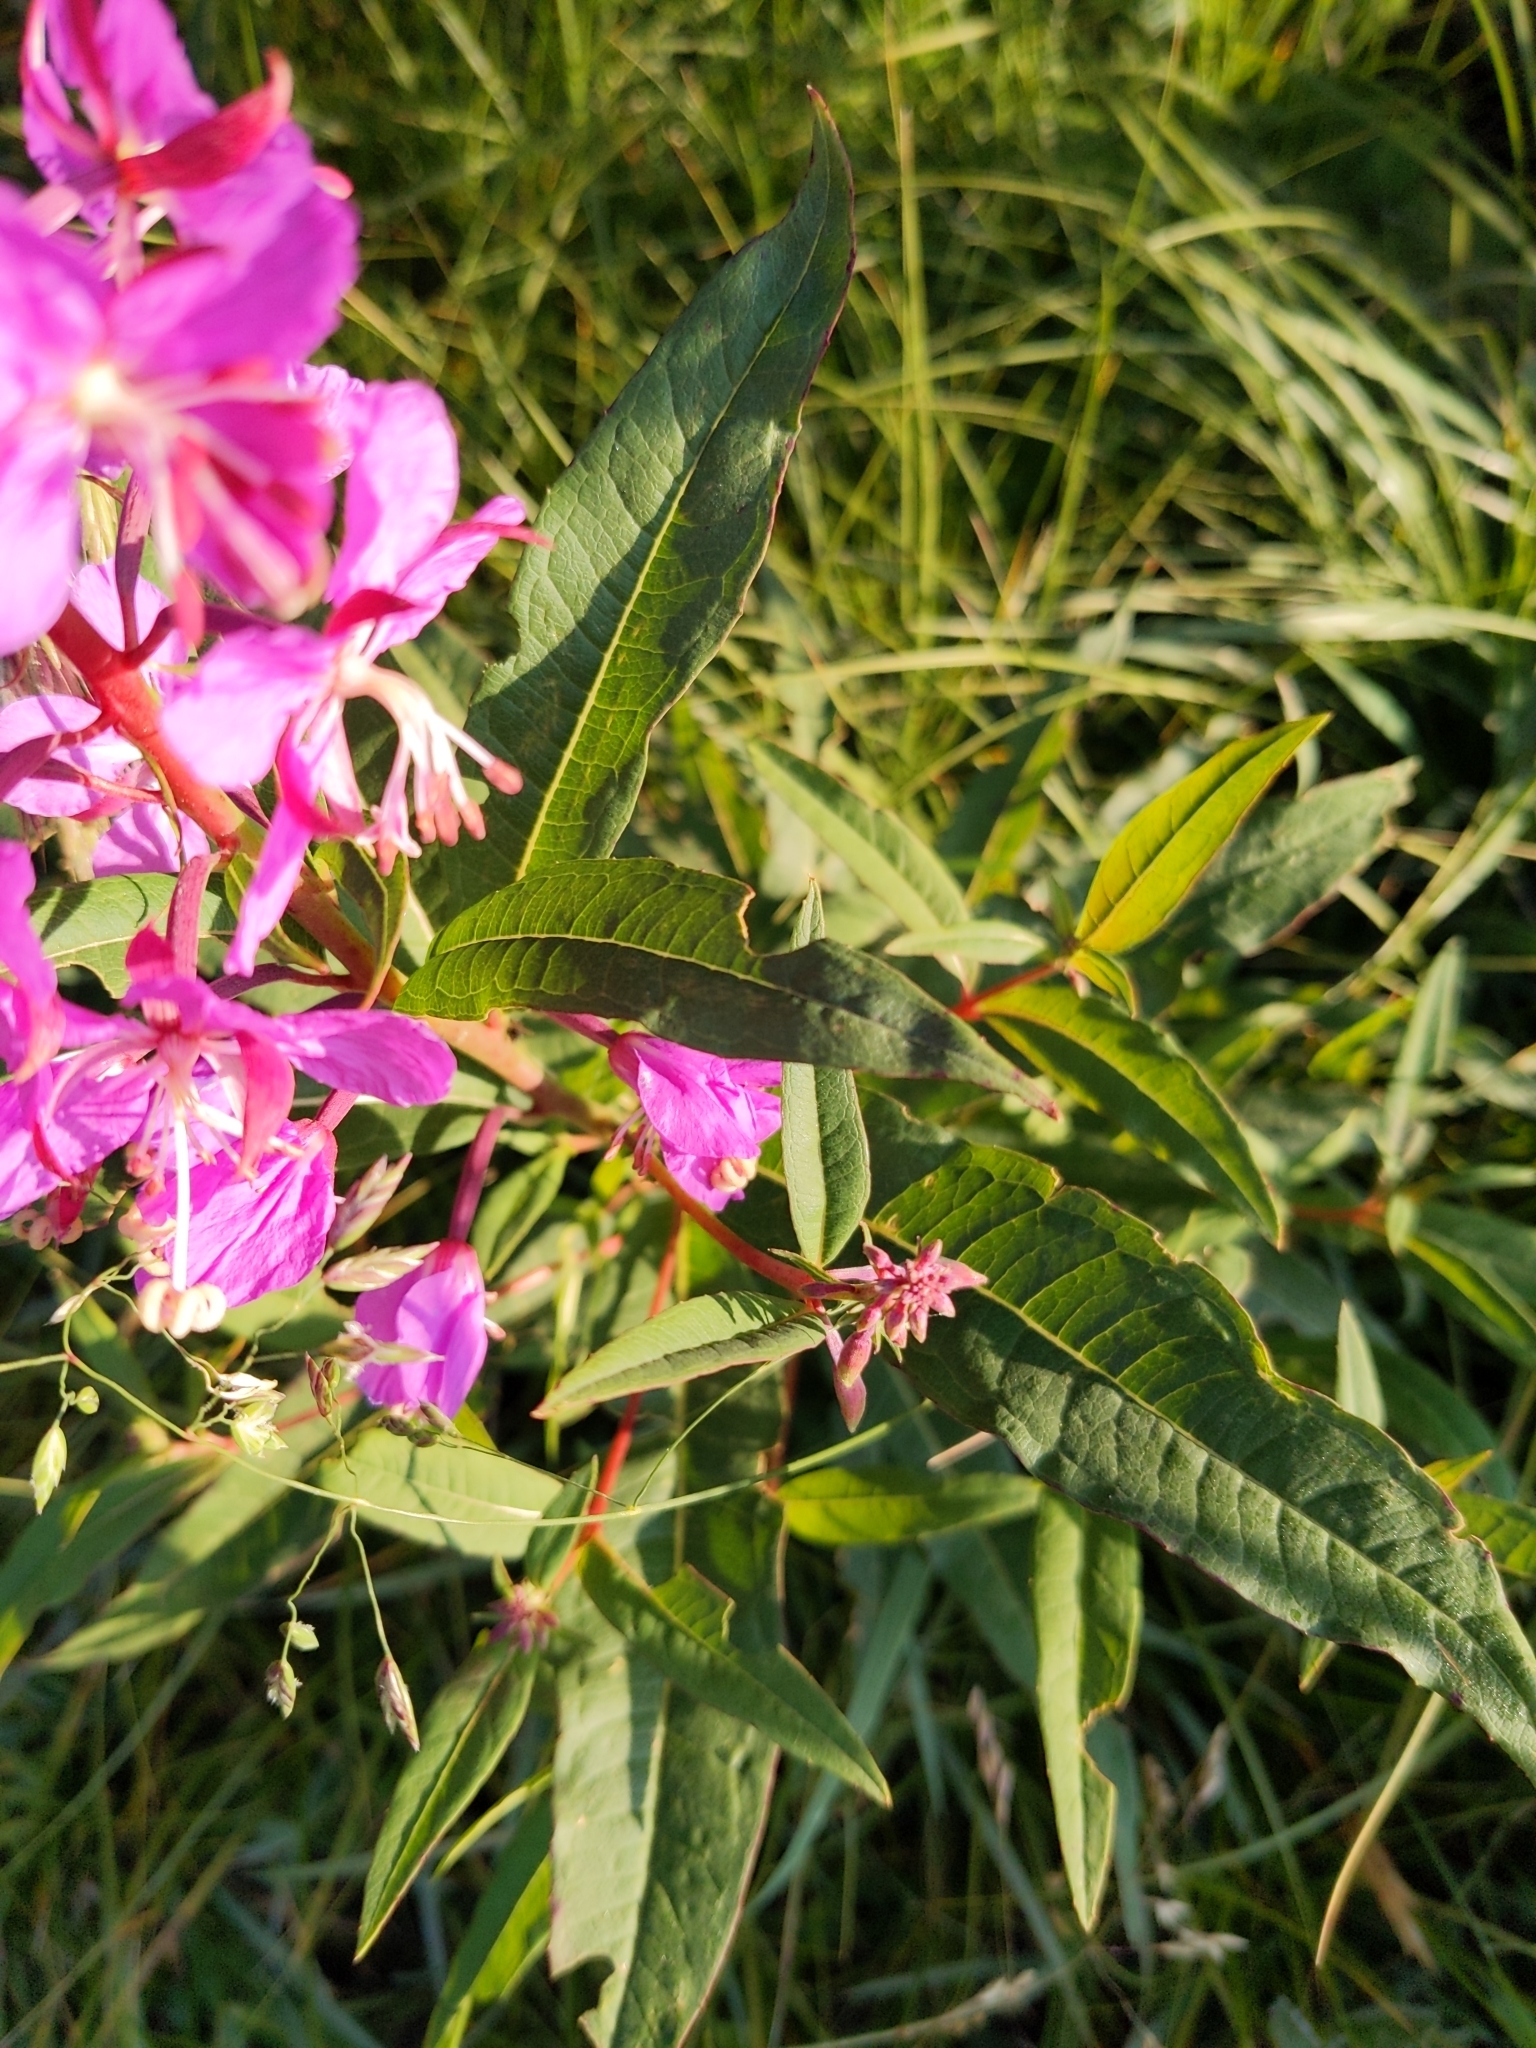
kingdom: Plantae
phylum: Tracheophyta
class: Magnoliopsida
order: Myrtales
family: Onagraceae
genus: Chamaenerion
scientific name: Chamaenerion angustifolium
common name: Fireweed
